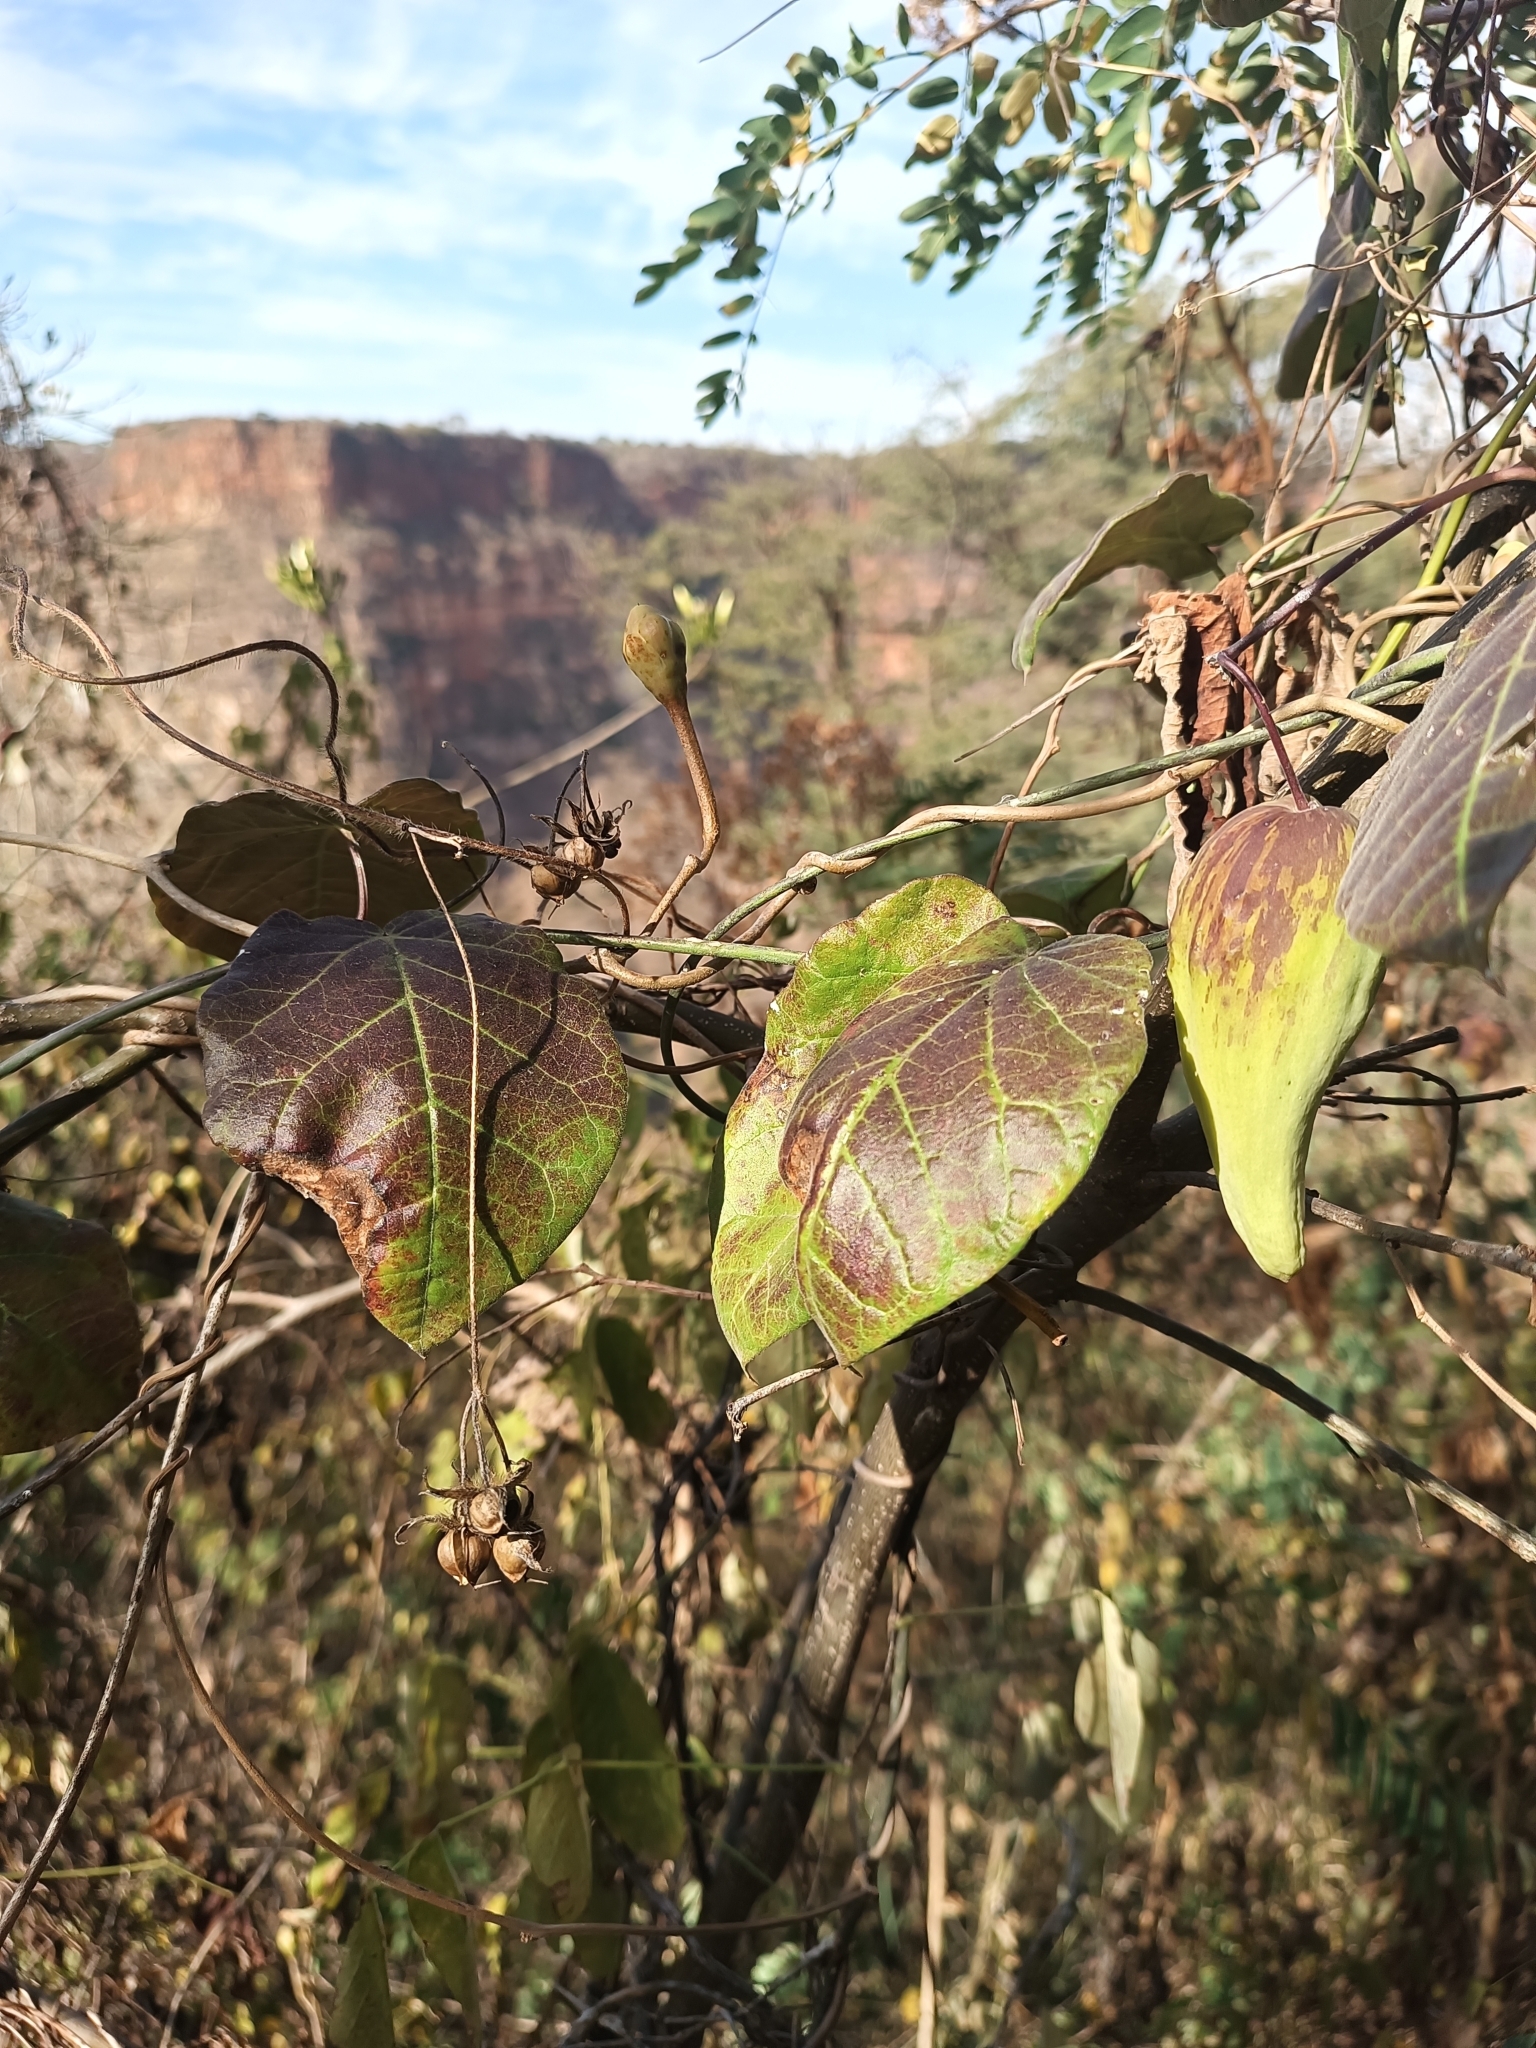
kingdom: Plantae
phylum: Tracheophyta
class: Magnoliopsida
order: Gentianales
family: Apocynaceae
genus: Funastrum
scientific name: Funastrum pannosum
